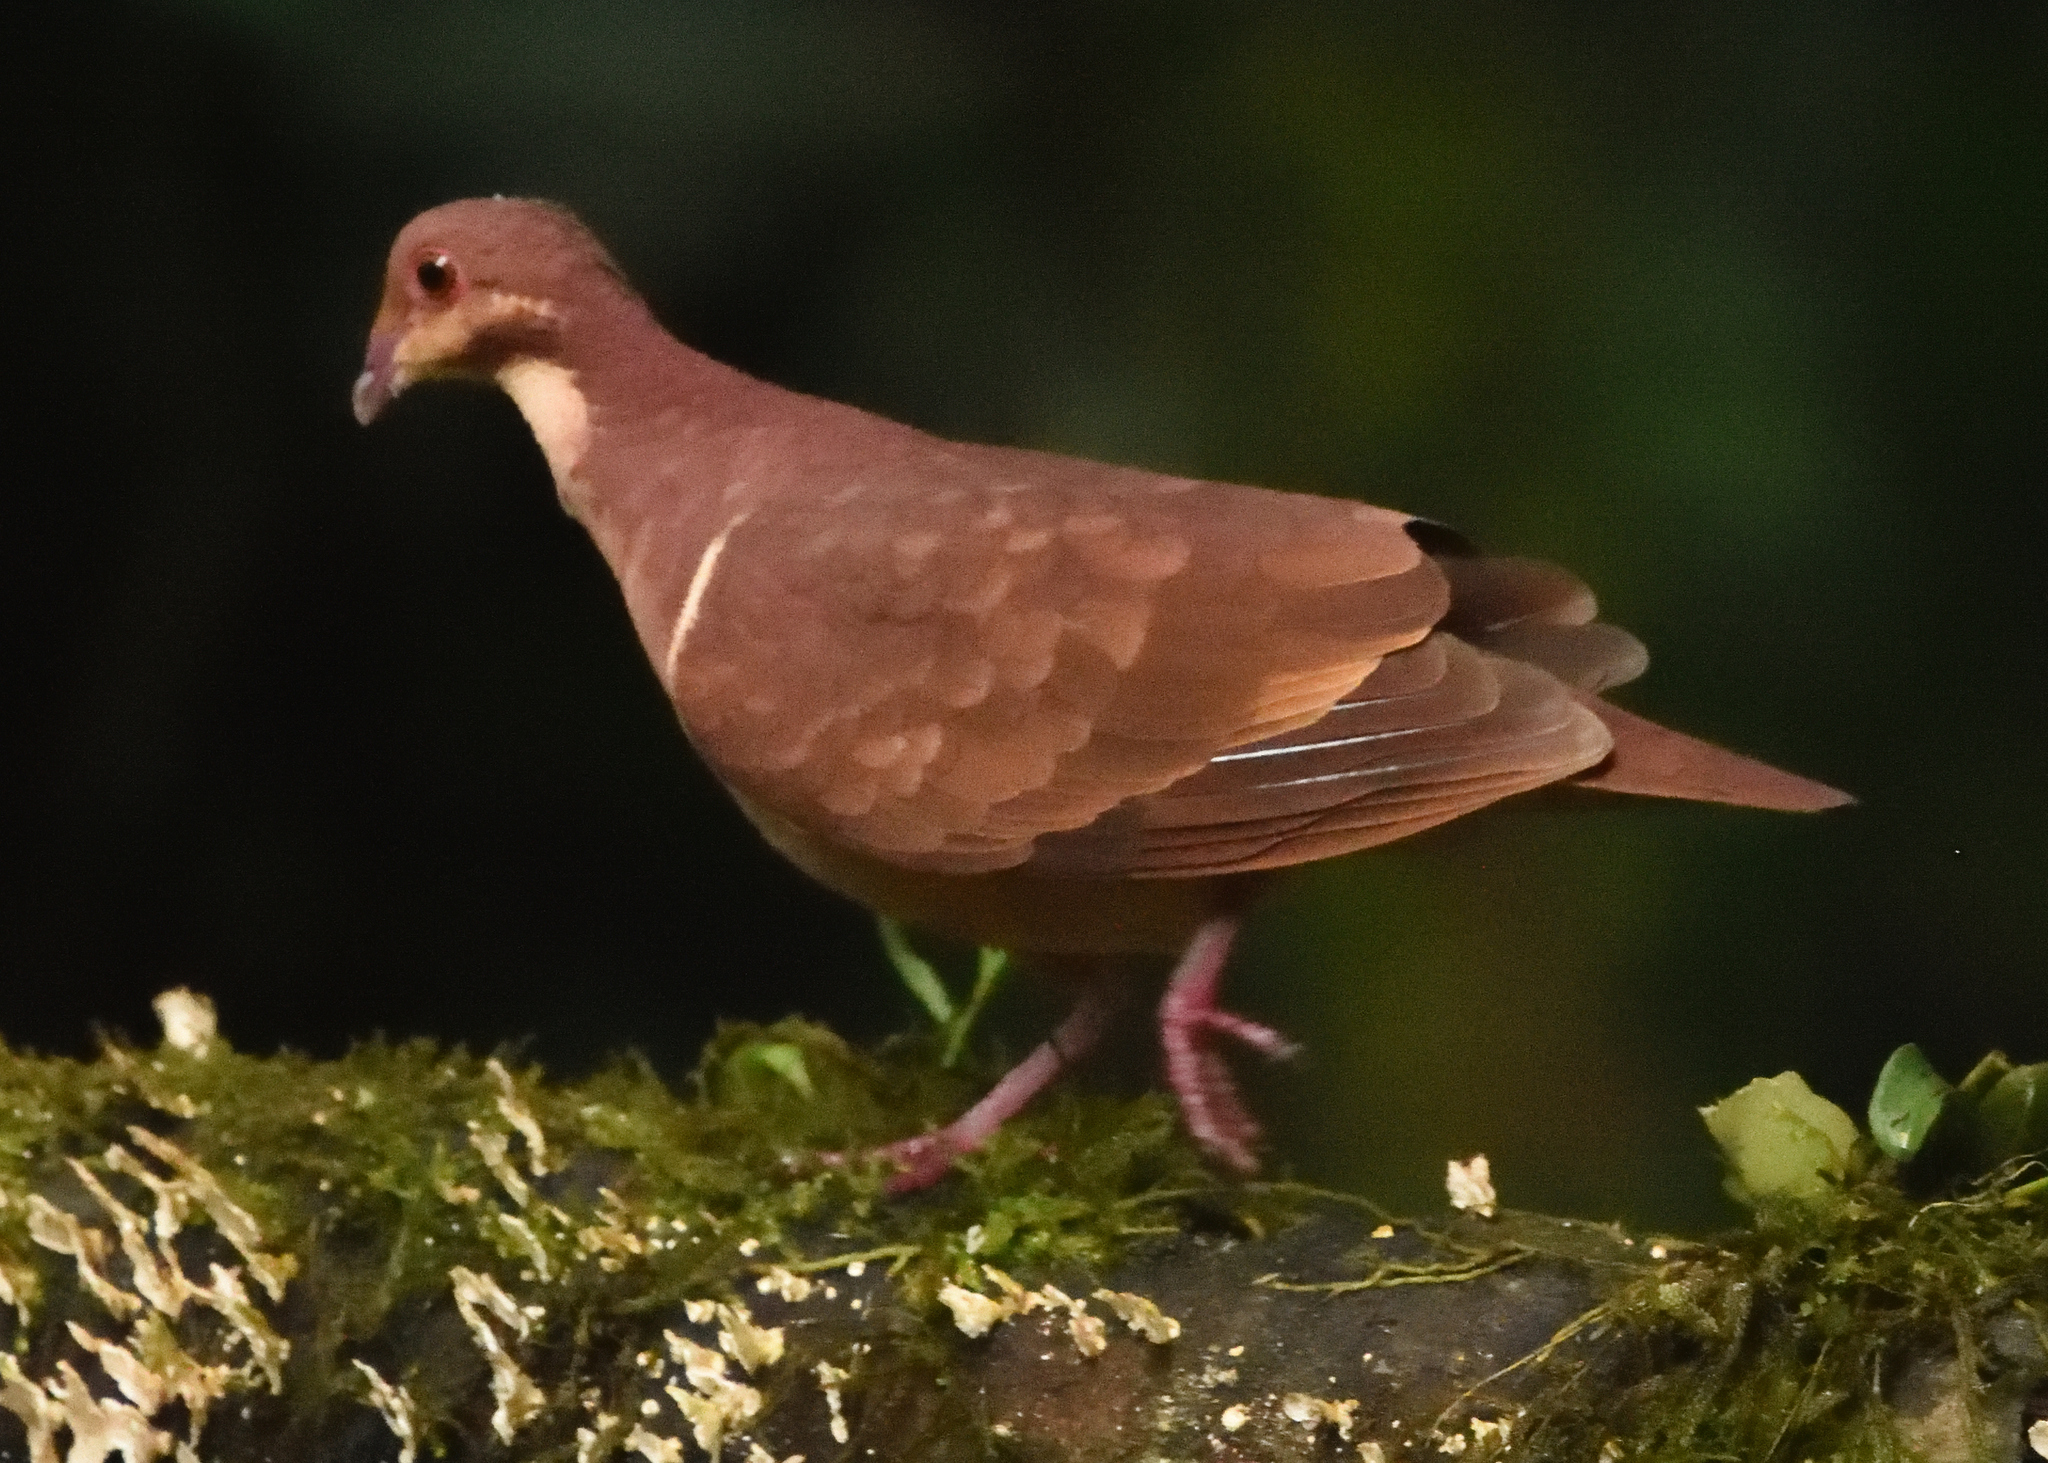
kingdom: Animalia
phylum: Chordata
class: Aves
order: Columbiformes
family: Columbidae
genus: Geotrygon
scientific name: Geotrygon montana
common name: Ruddy quail-dove
